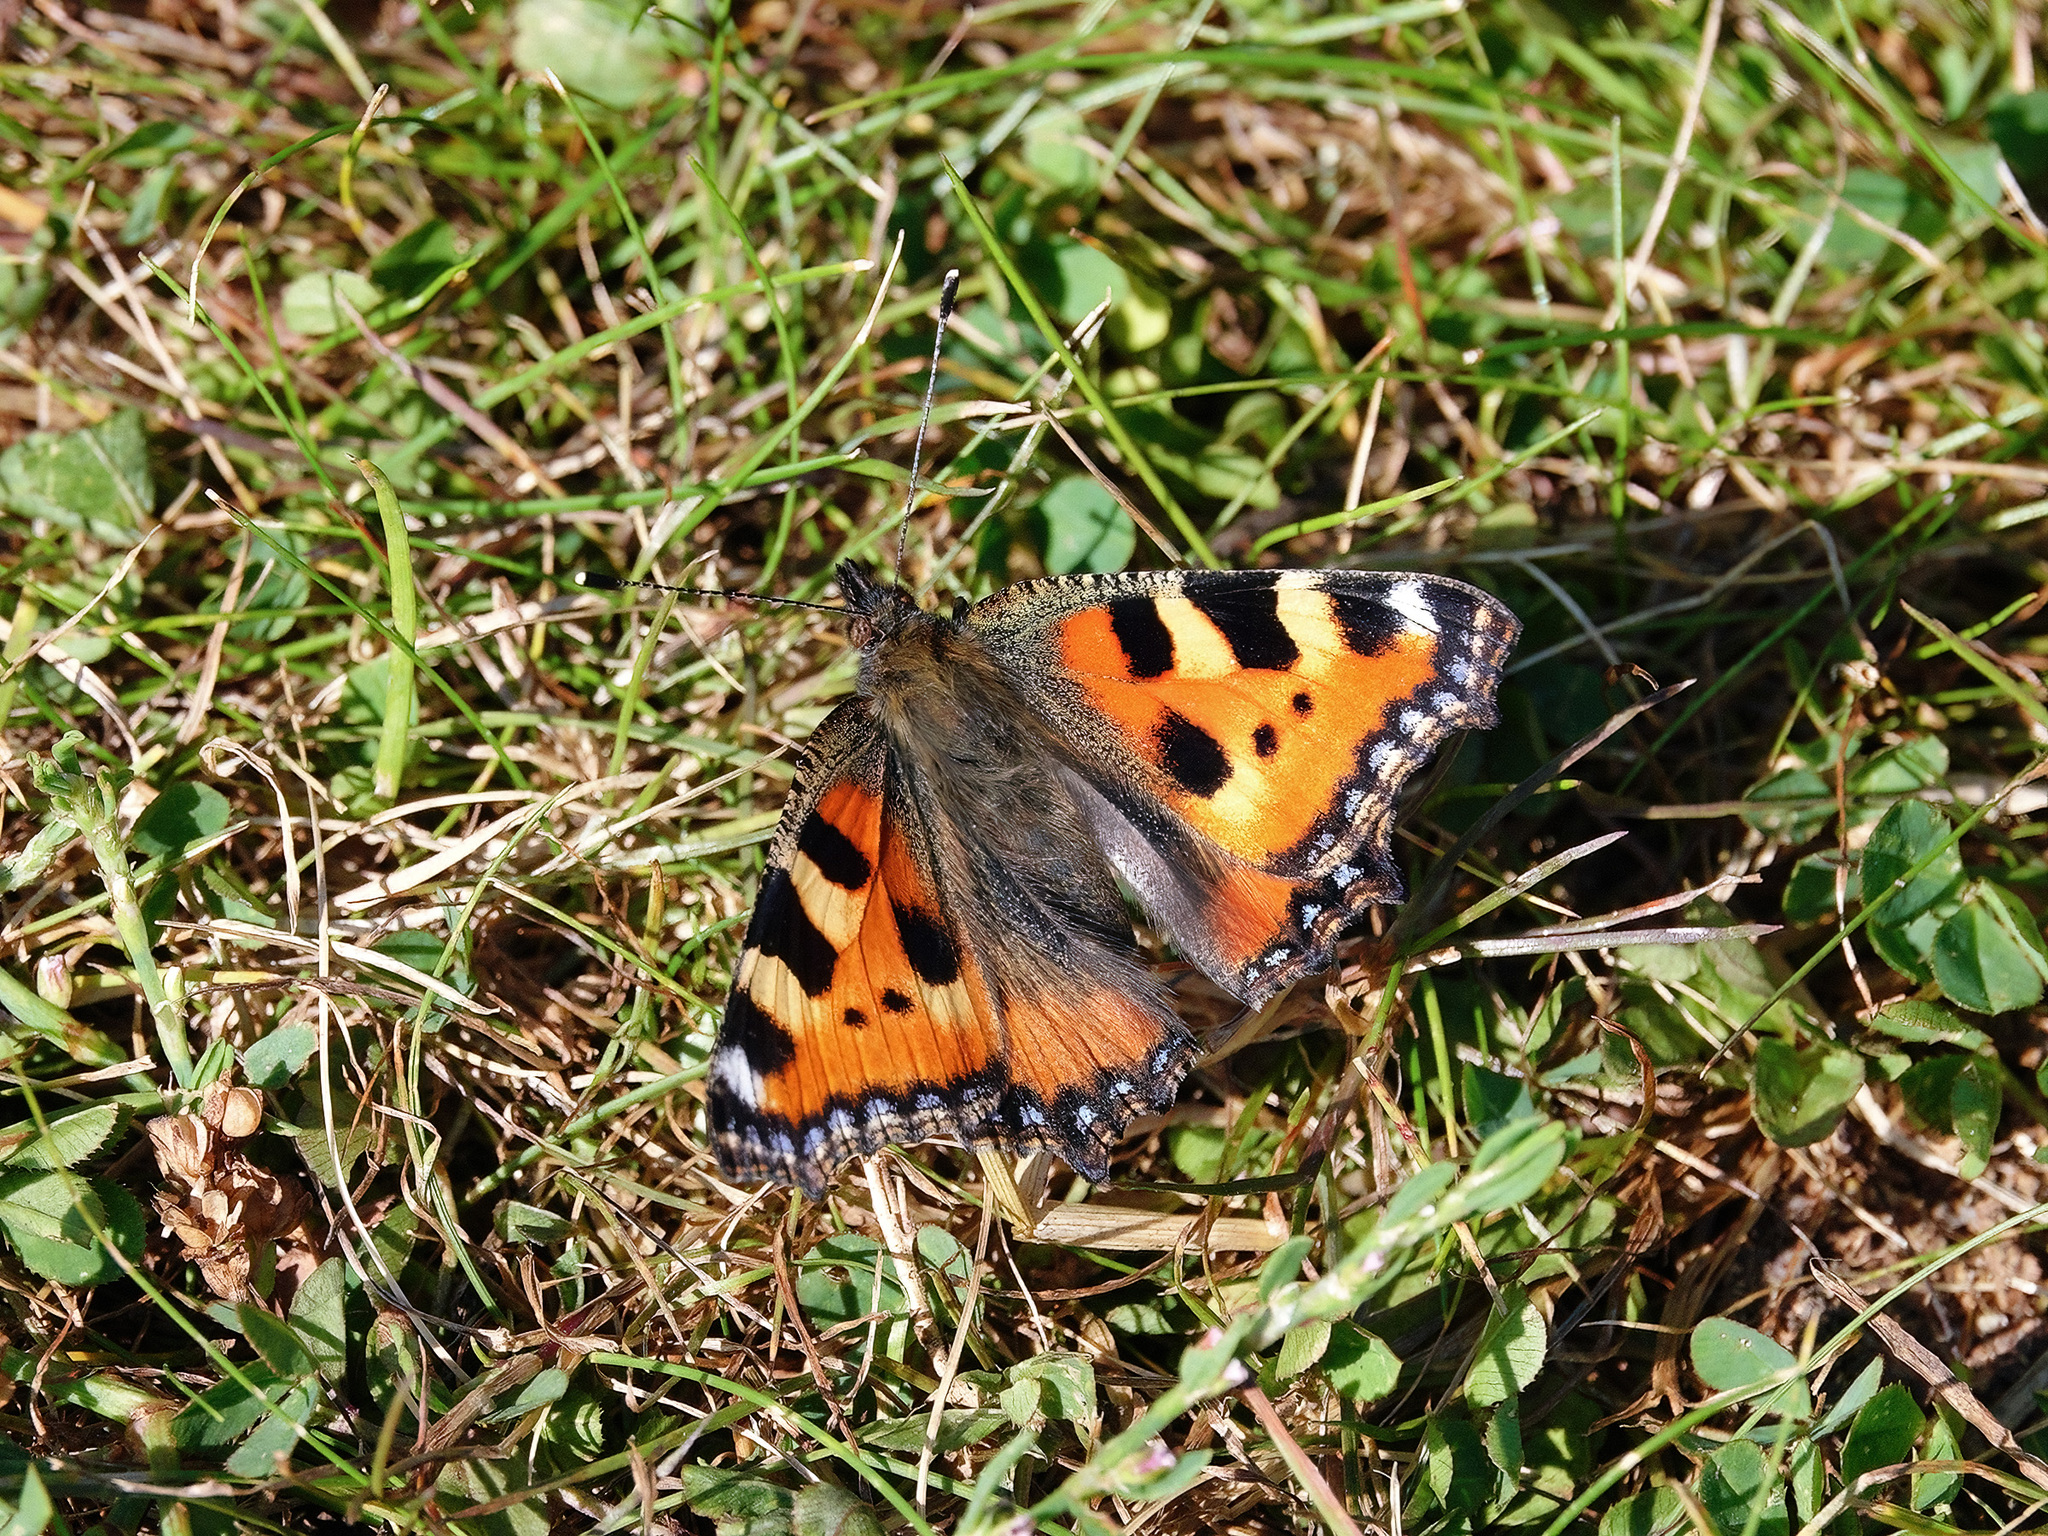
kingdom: Animalia
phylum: Arthropoda
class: Insecta
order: Lepidoptera
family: Nymphalidae
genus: Aglais
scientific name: Aglais urticae
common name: Small tortoiseshell
